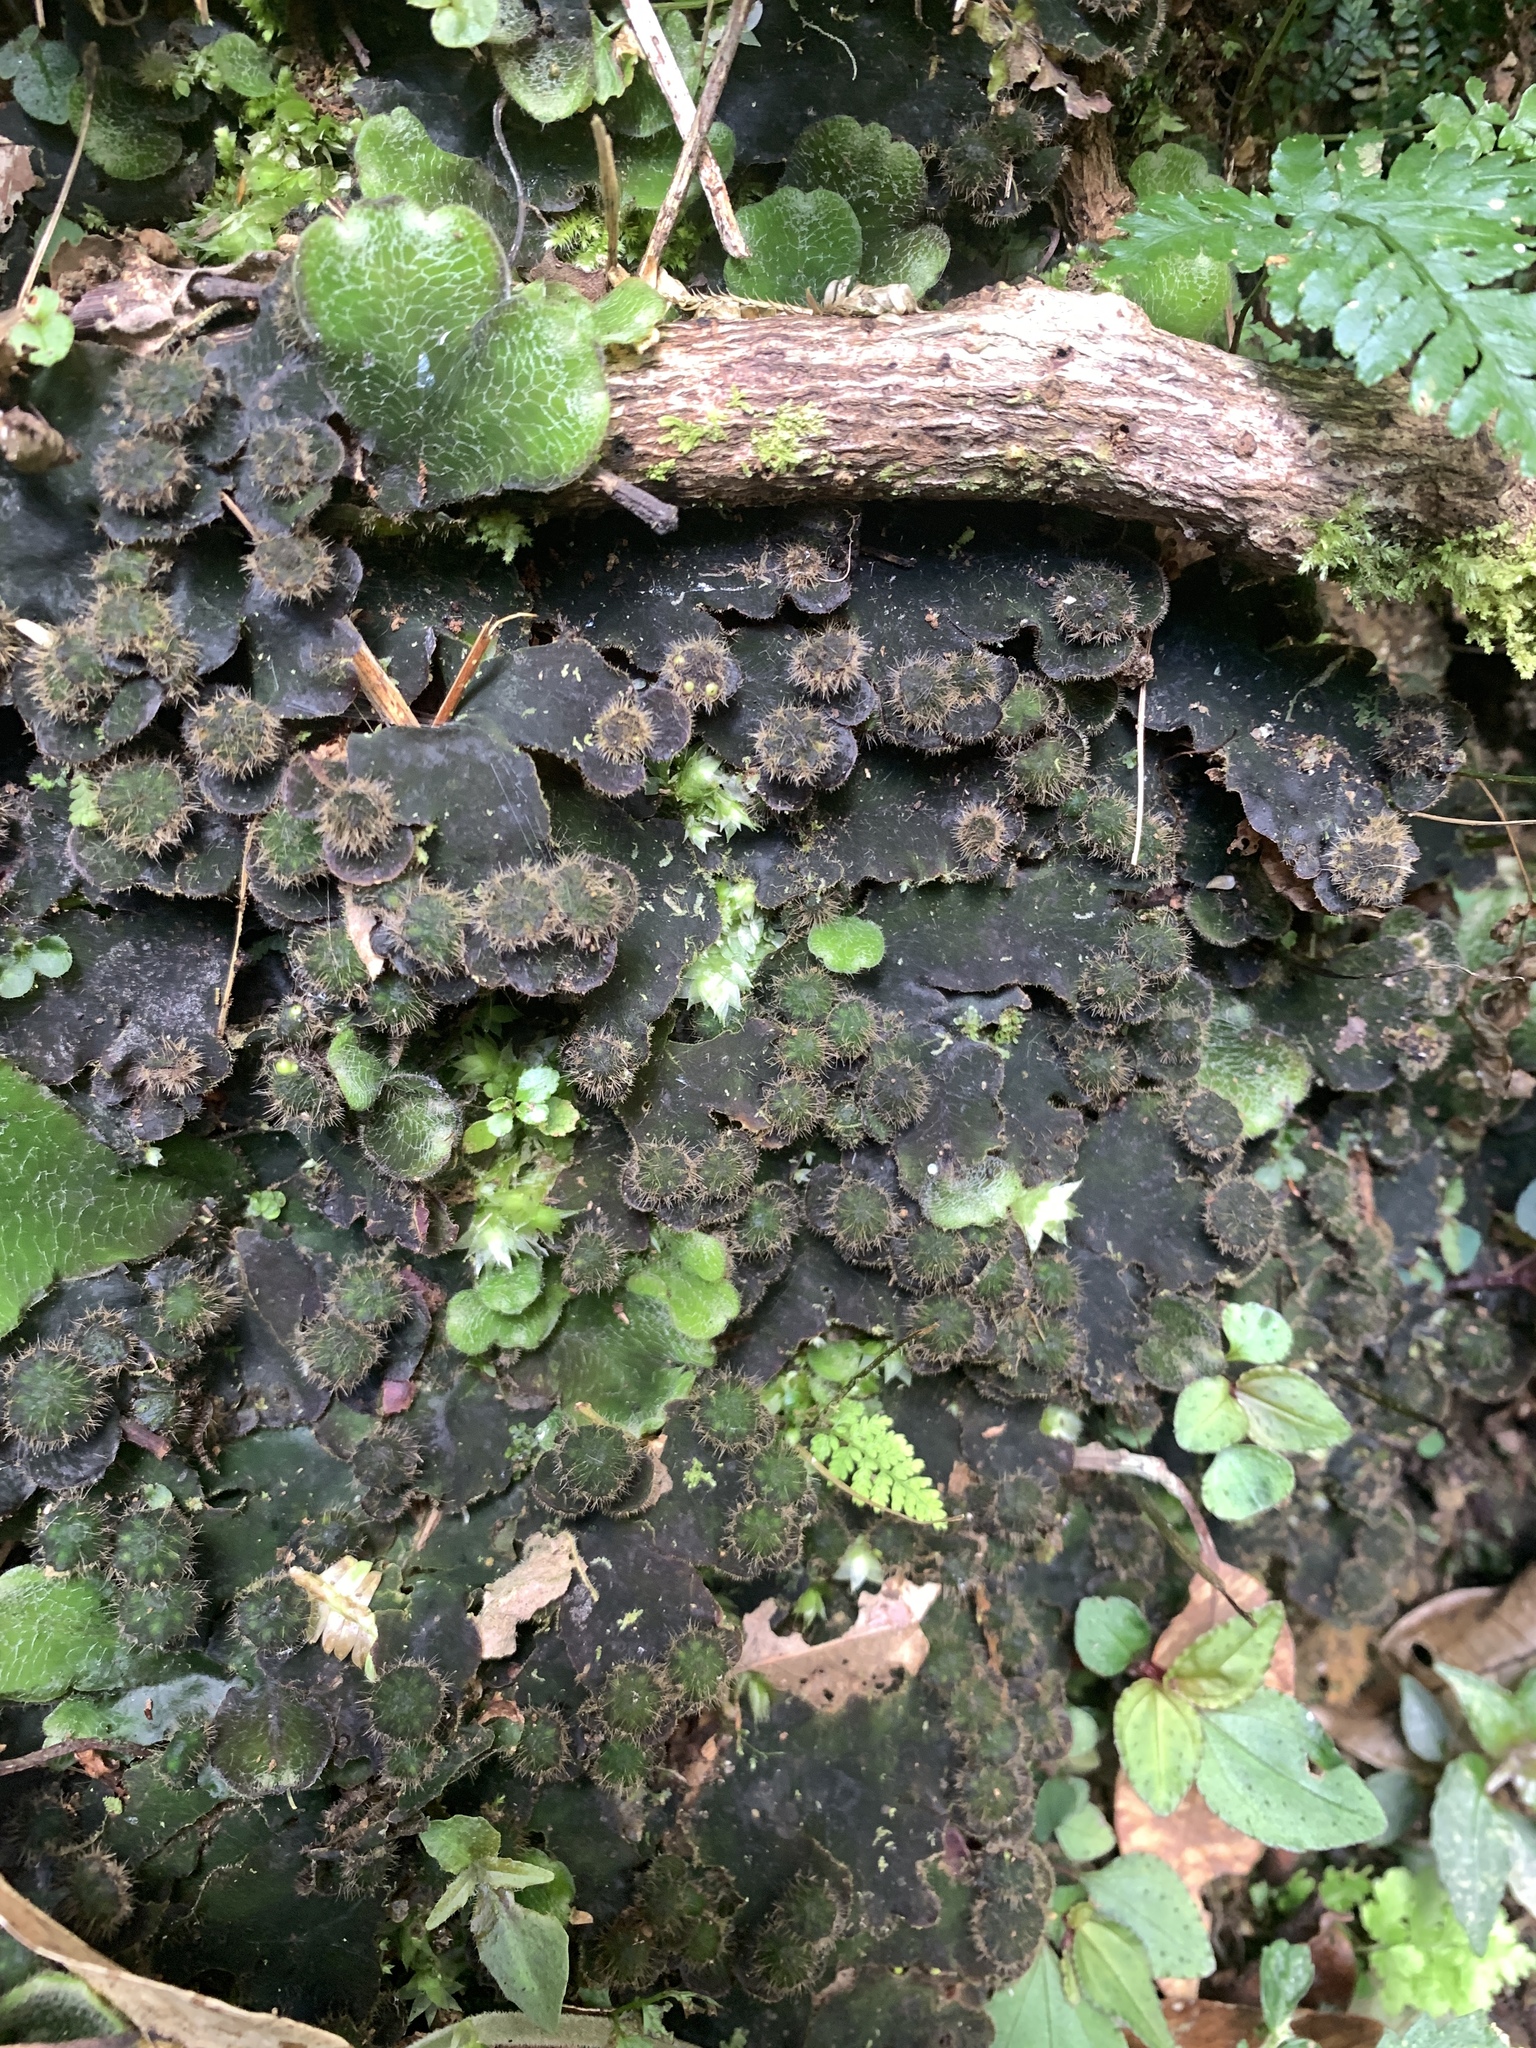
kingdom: Plantae
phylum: Marchantiophyta
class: Marchantiopsida
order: Marchantiales
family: Dumortieraceae
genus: Dumortiera
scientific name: Dumortiera hirsuta
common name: Dumortier's liverwort
